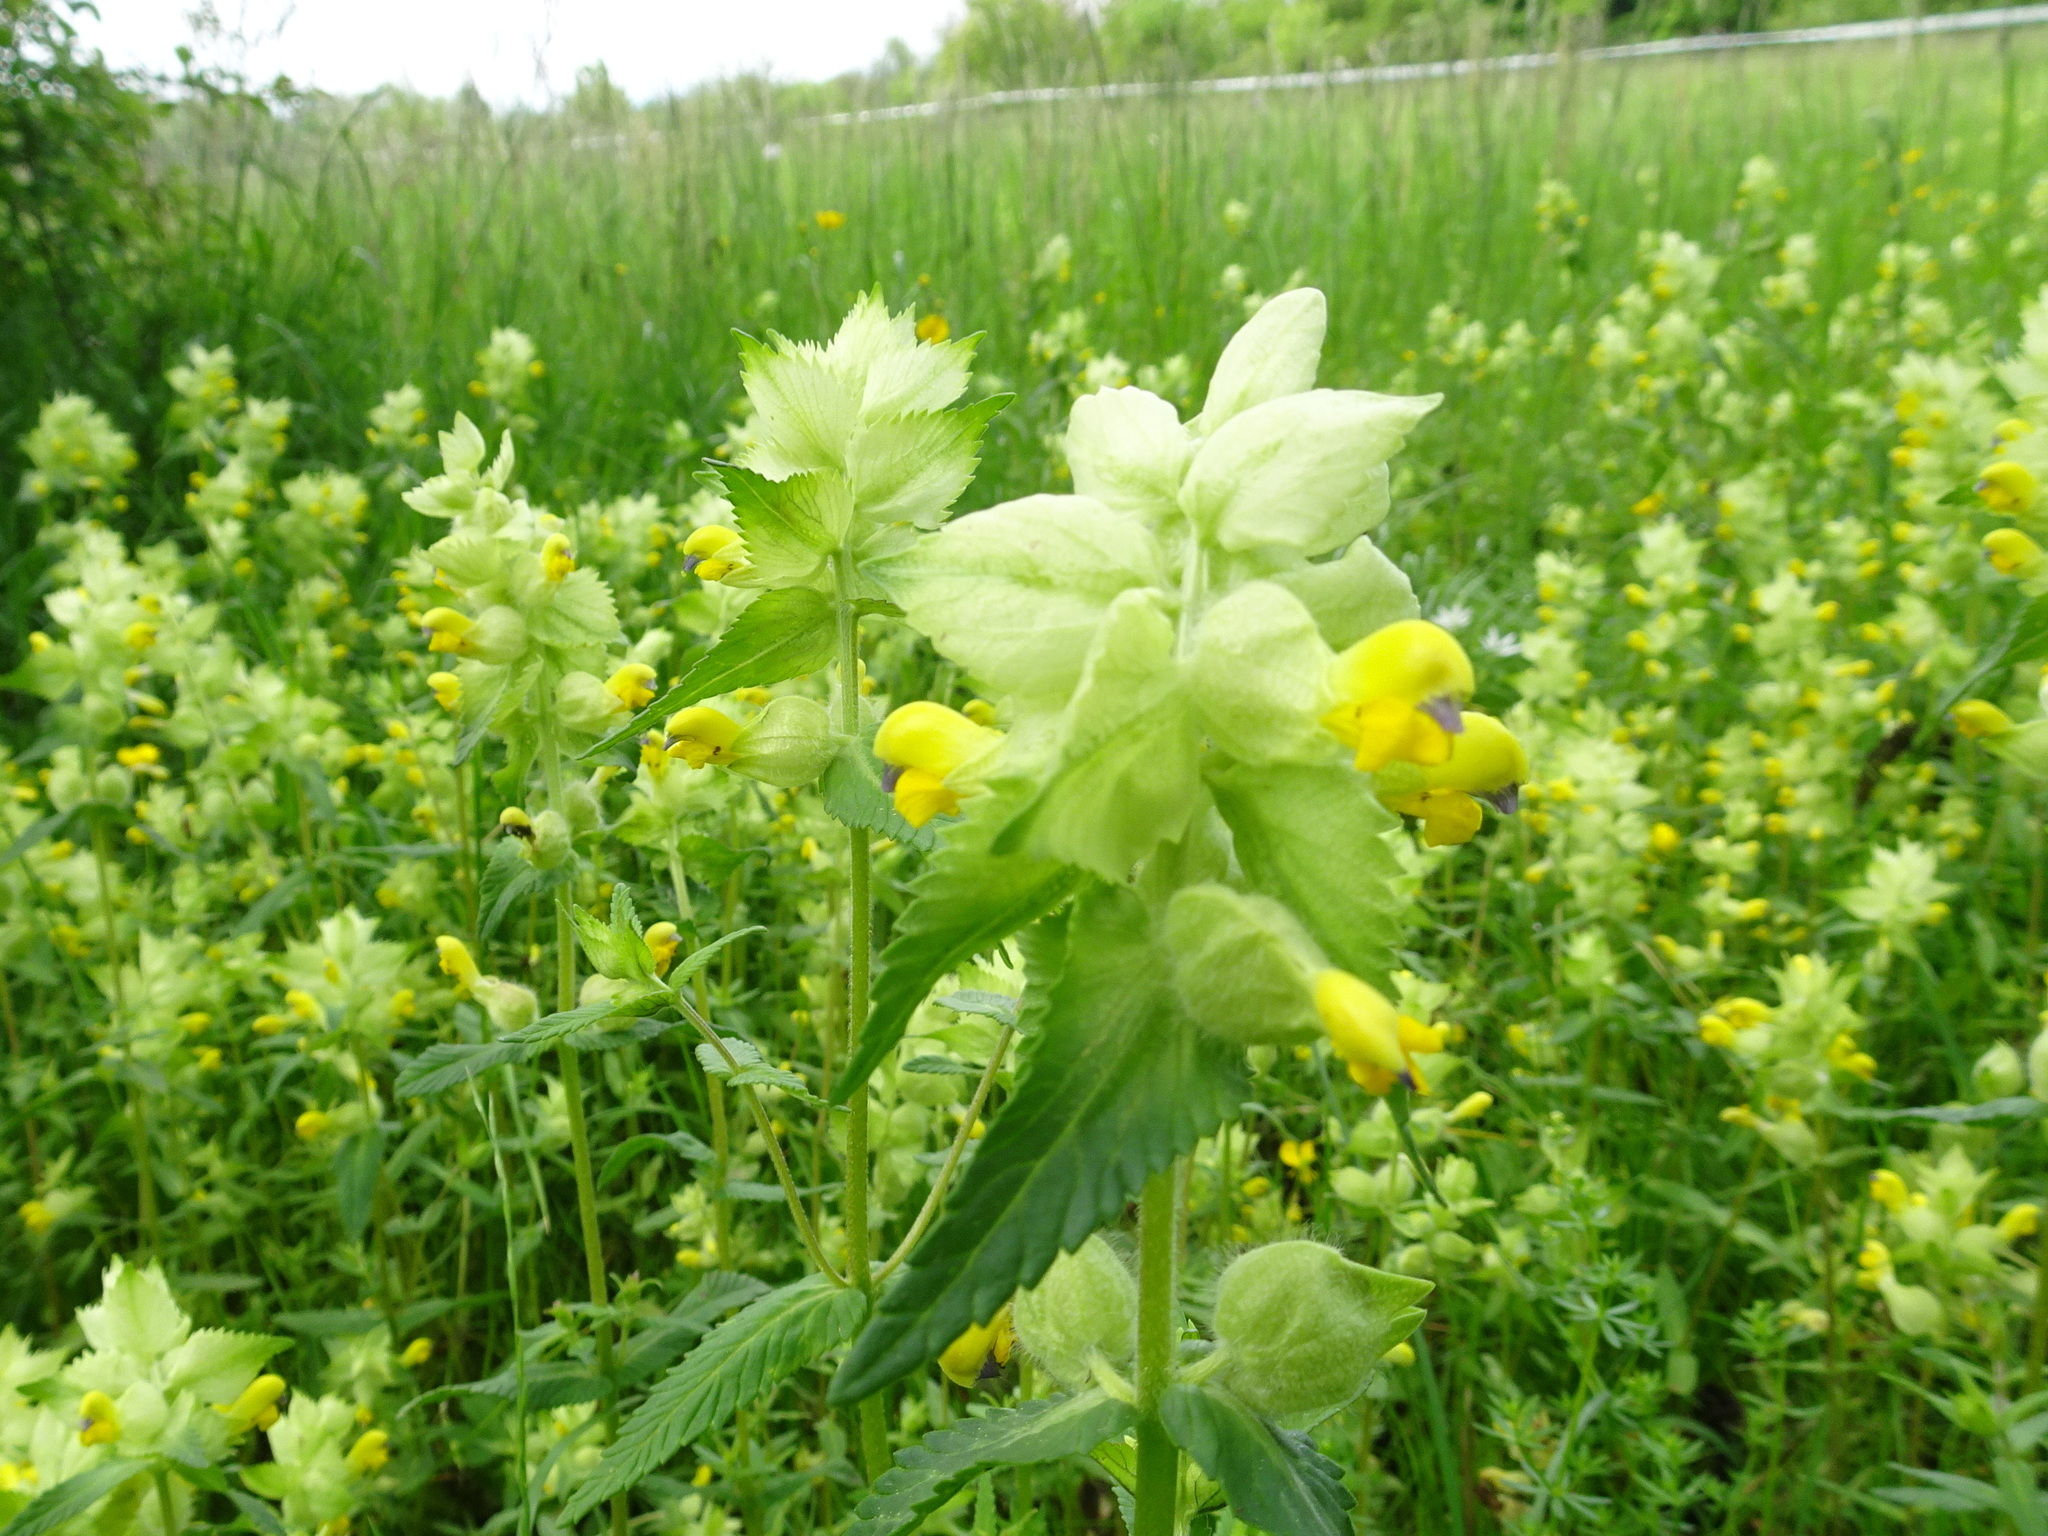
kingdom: Plantae
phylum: Tracheophyta
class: Magnoliopsida
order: Lamiales
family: Orobanchaceae
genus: Rhinanthus
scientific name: Rhinanthus alectorolophus
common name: Greater yellow-rattle
